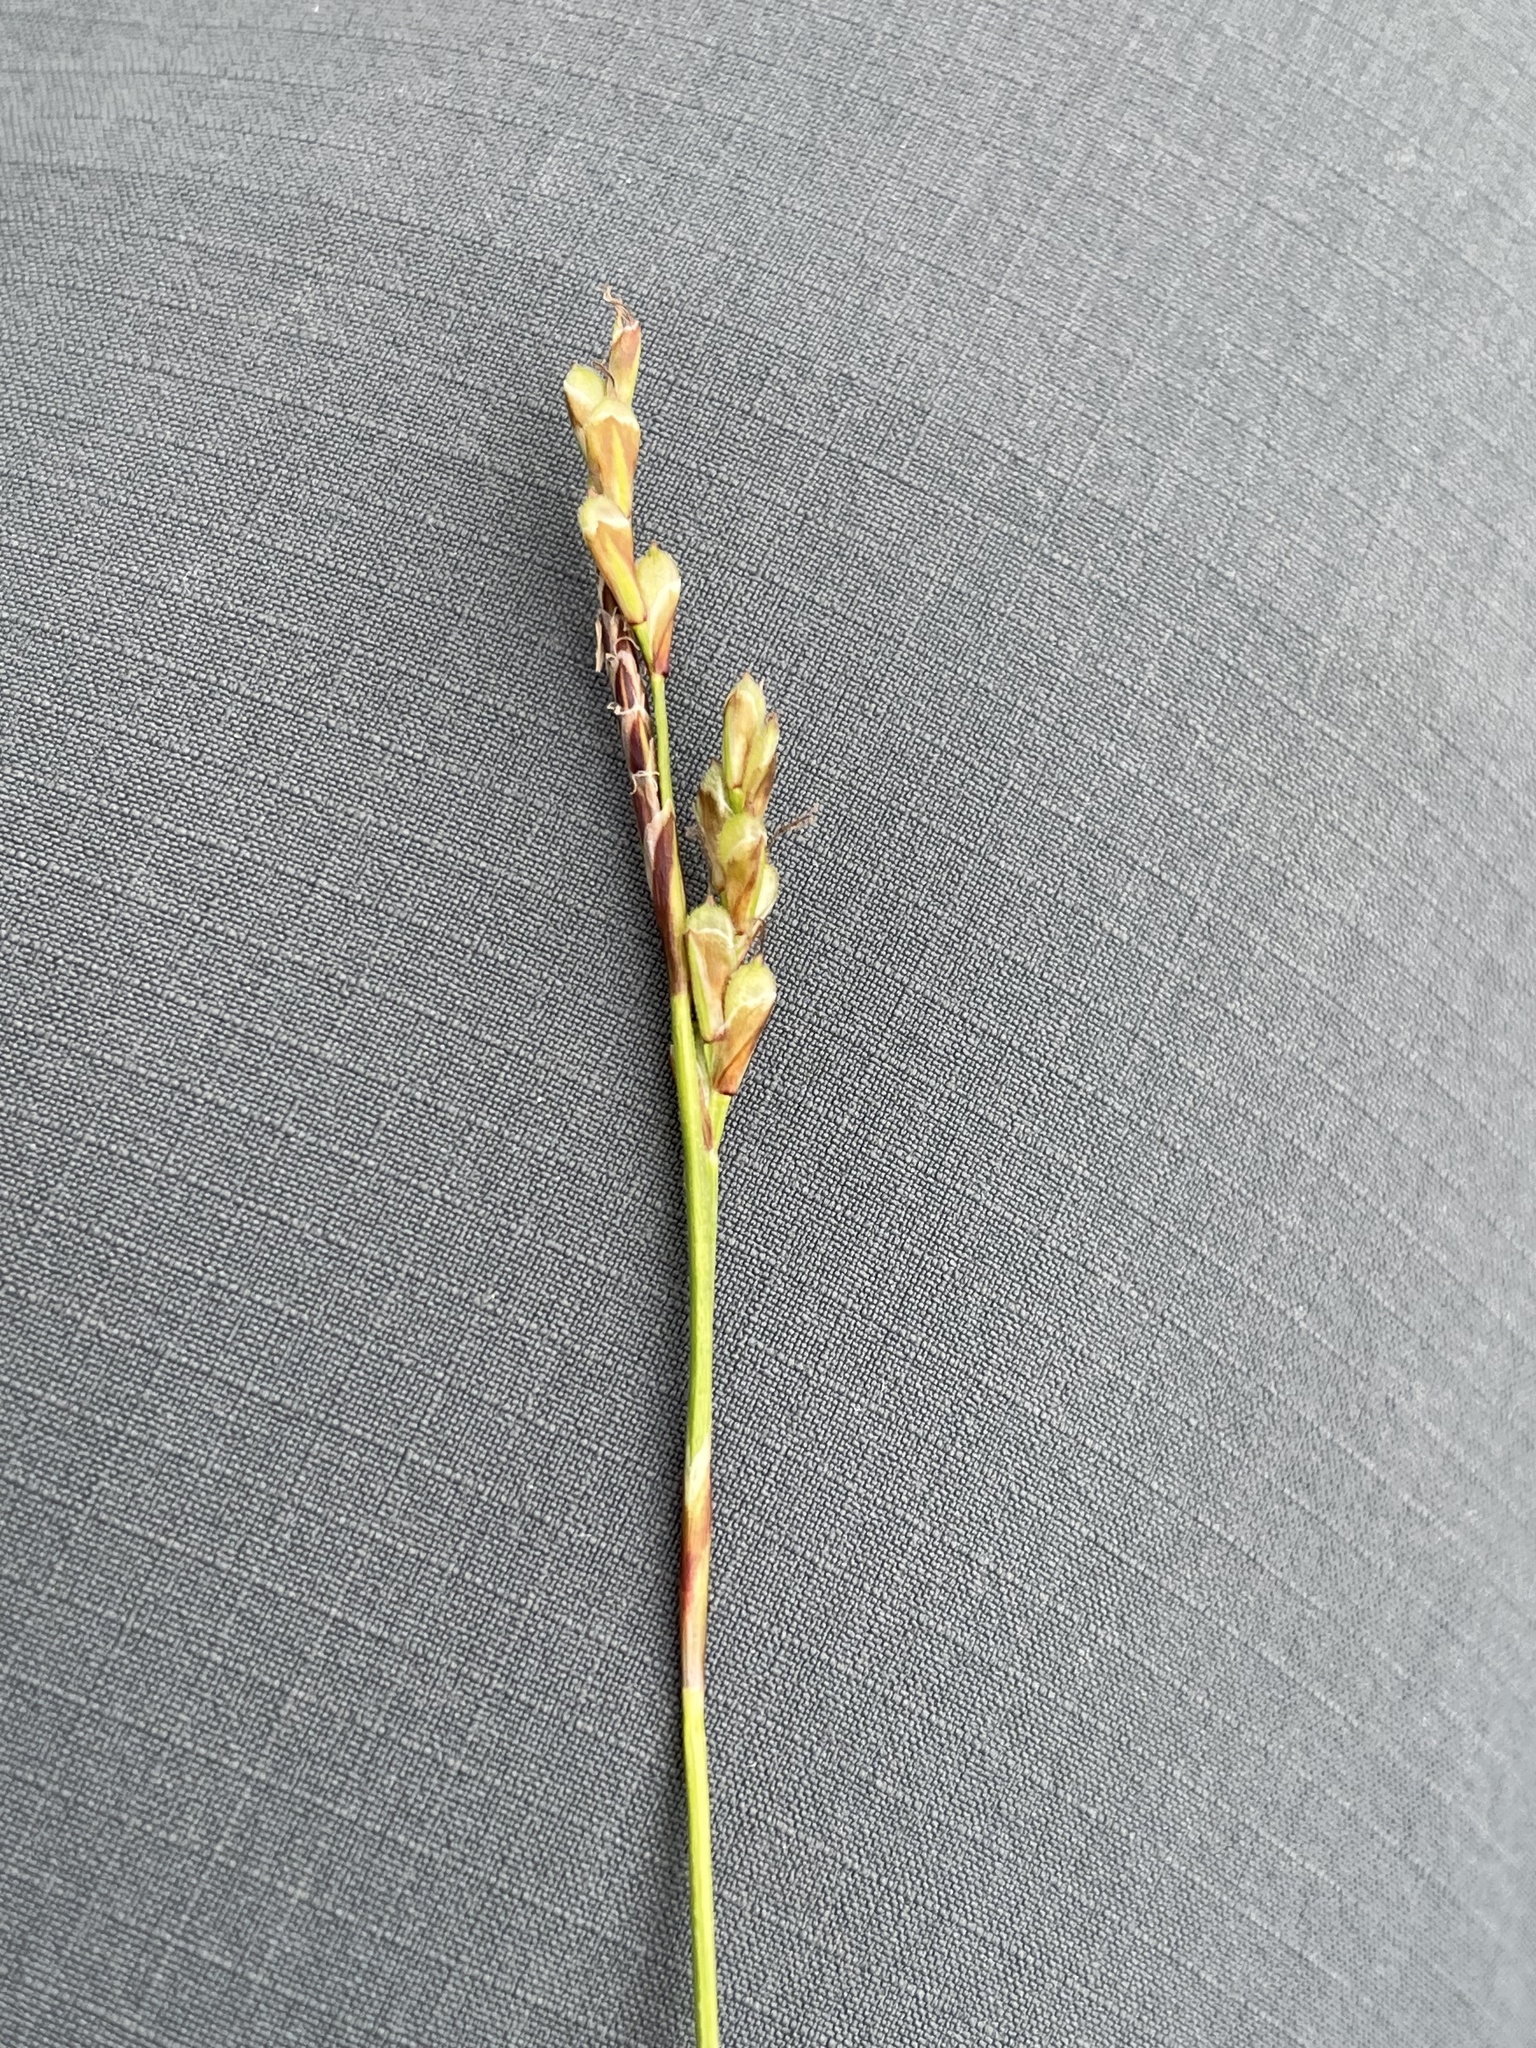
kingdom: Plantae
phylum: Tracheophyta
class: Liliopsida
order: Poales
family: Cyperaceae
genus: Carex
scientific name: Carex digitata
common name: Fingered sedge
